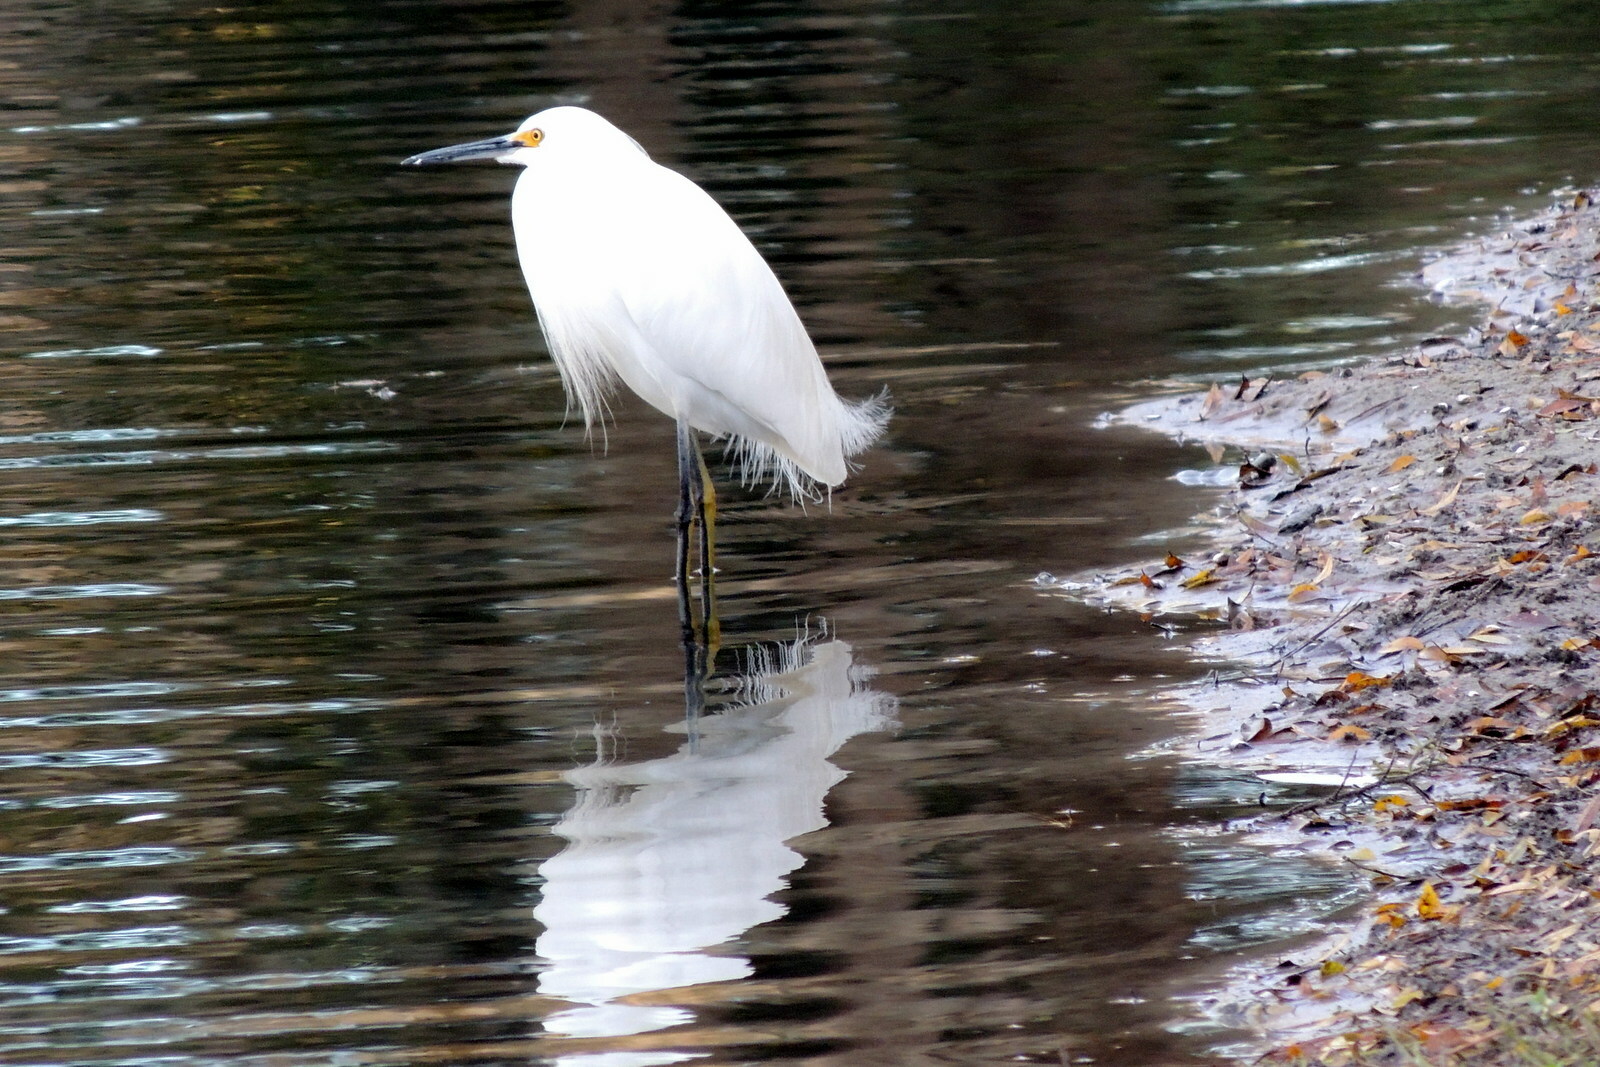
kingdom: Animalia
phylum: Chordata
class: Aves
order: Pelecaniformes
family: Ardeidae
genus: Egretta
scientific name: Egretta thula
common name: Snowy egret
